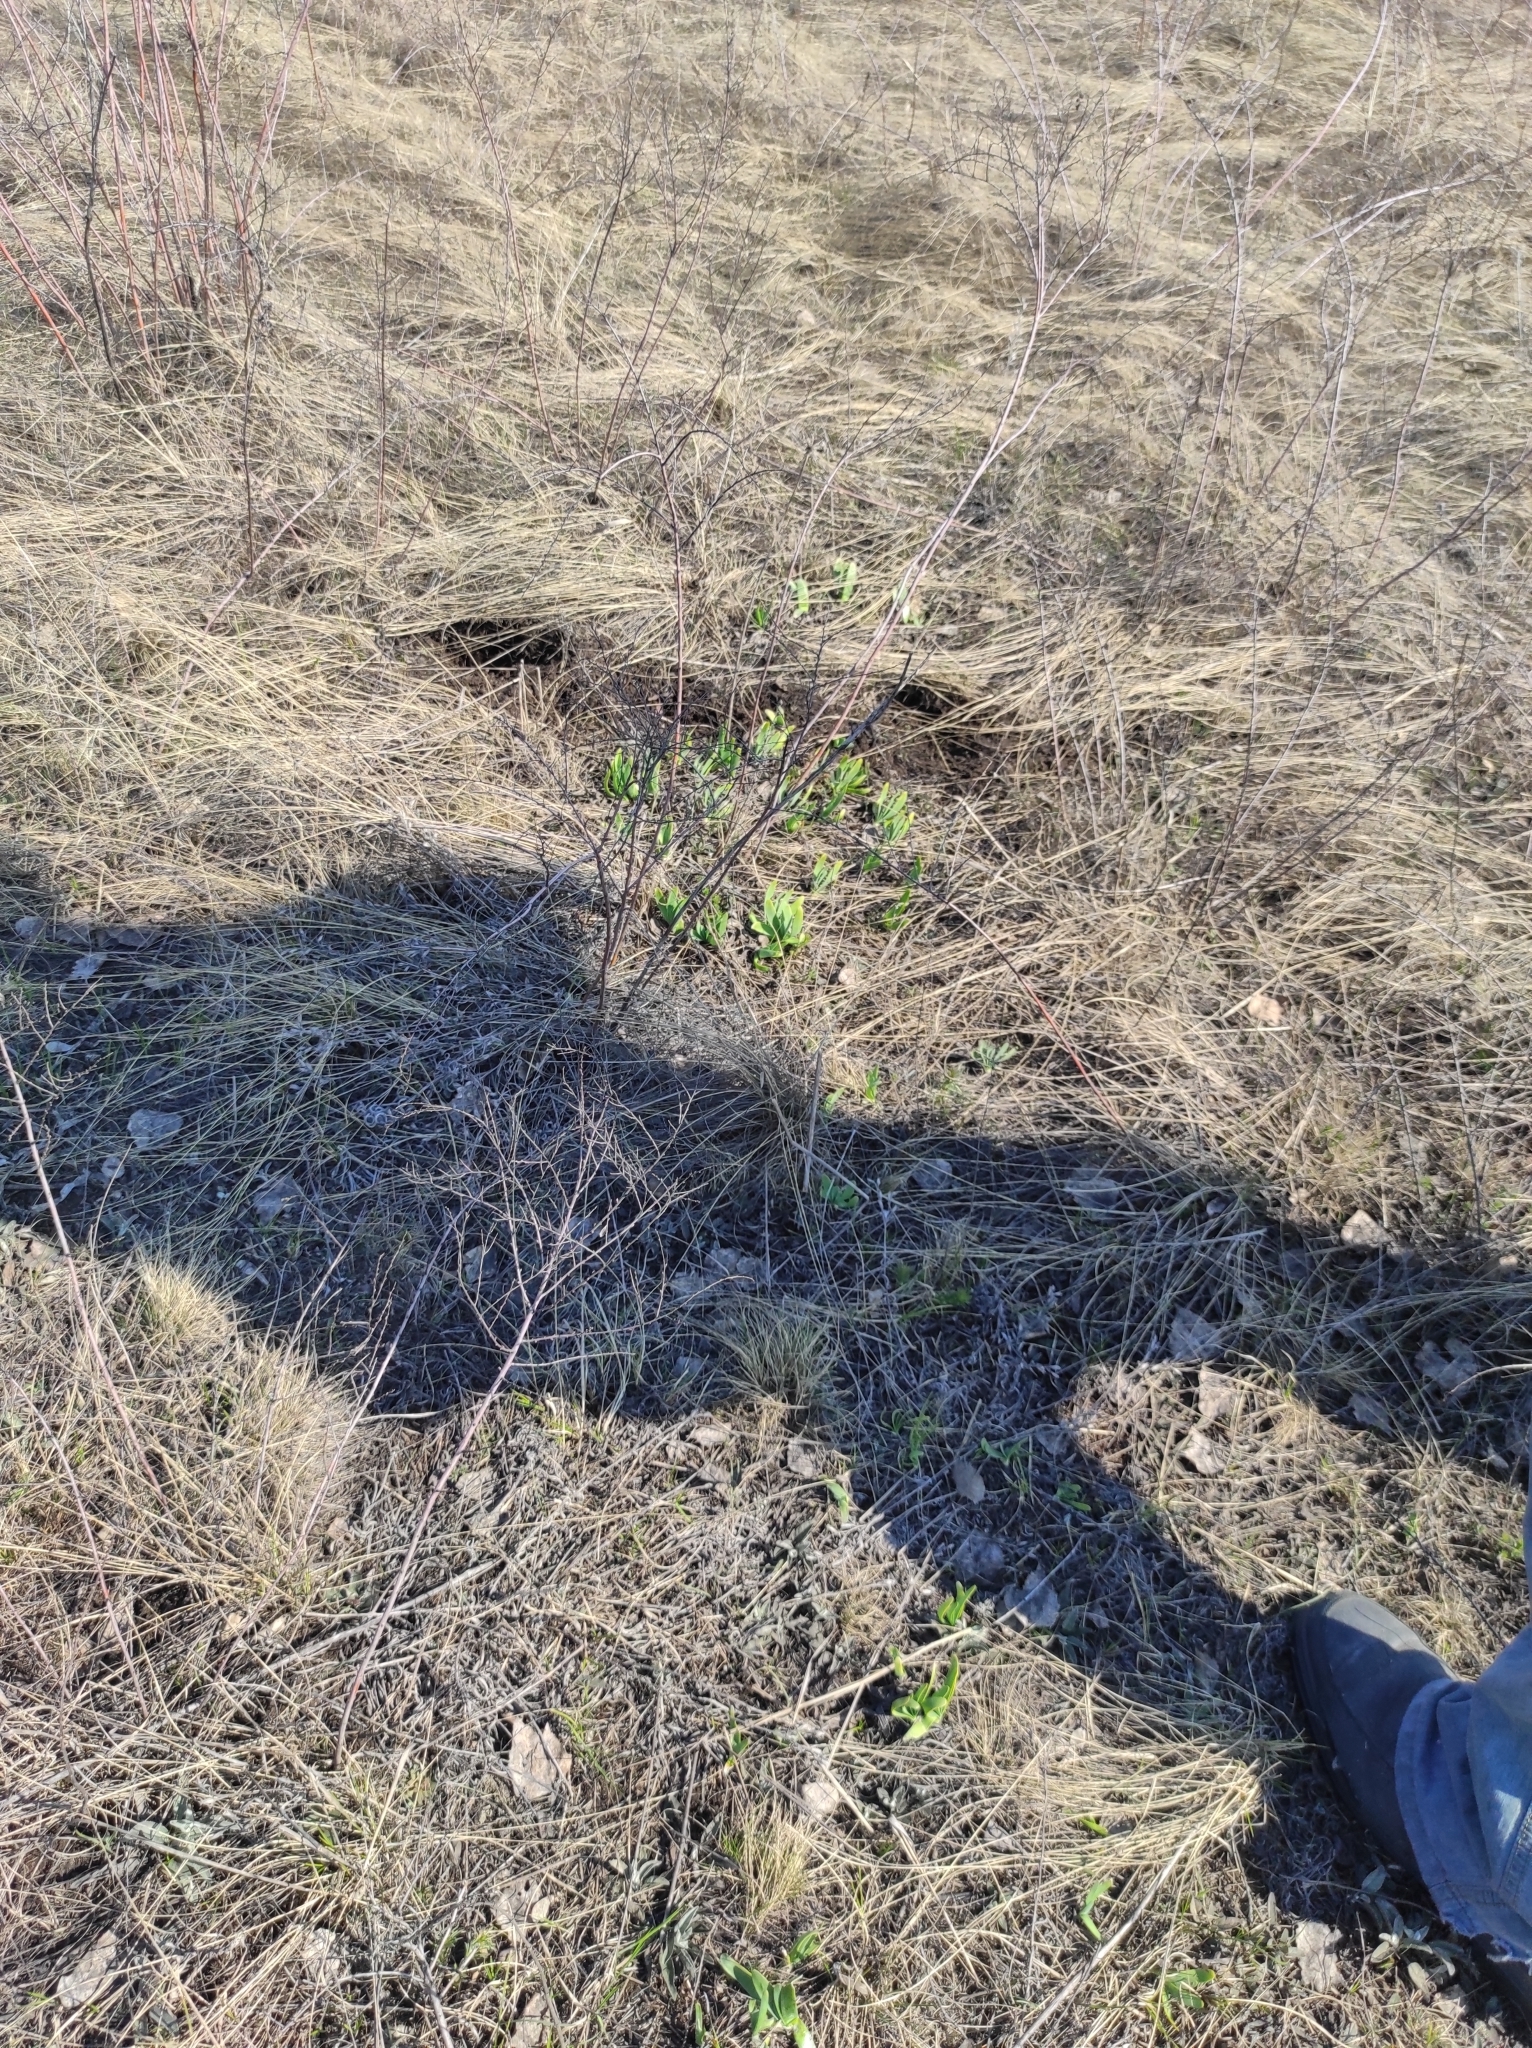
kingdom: Plantae
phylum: Tracheophyta
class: Liliopsida
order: Asparagales
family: Amaryllidaceae
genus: Allium
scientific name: Allium nutans
